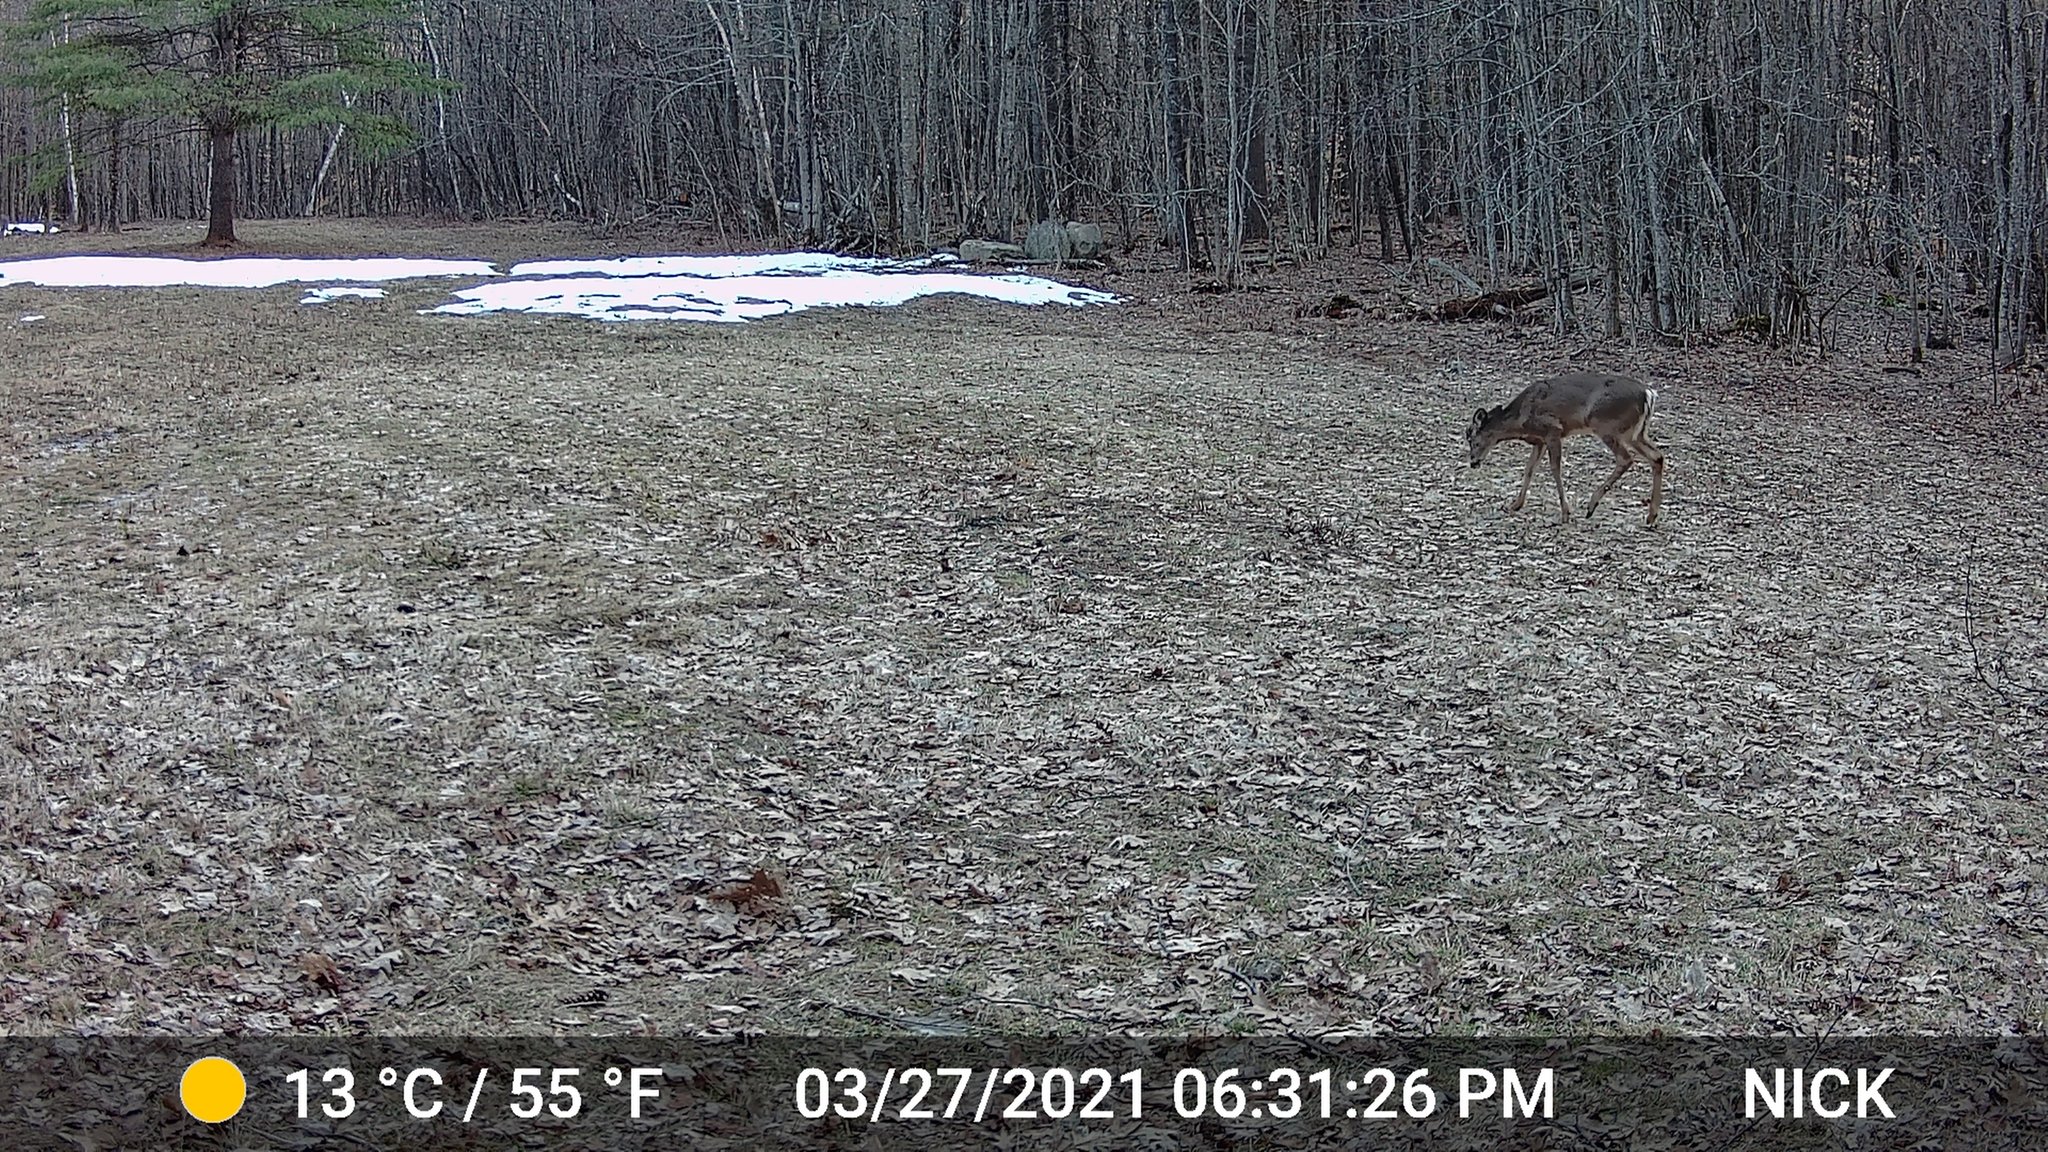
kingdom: Animalia
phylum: Chordata
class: Mammalia
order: Artiodactyla
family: Cervidae
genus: Odocoileus
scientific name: Odocoileus virginianus
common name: White-tailed deer
